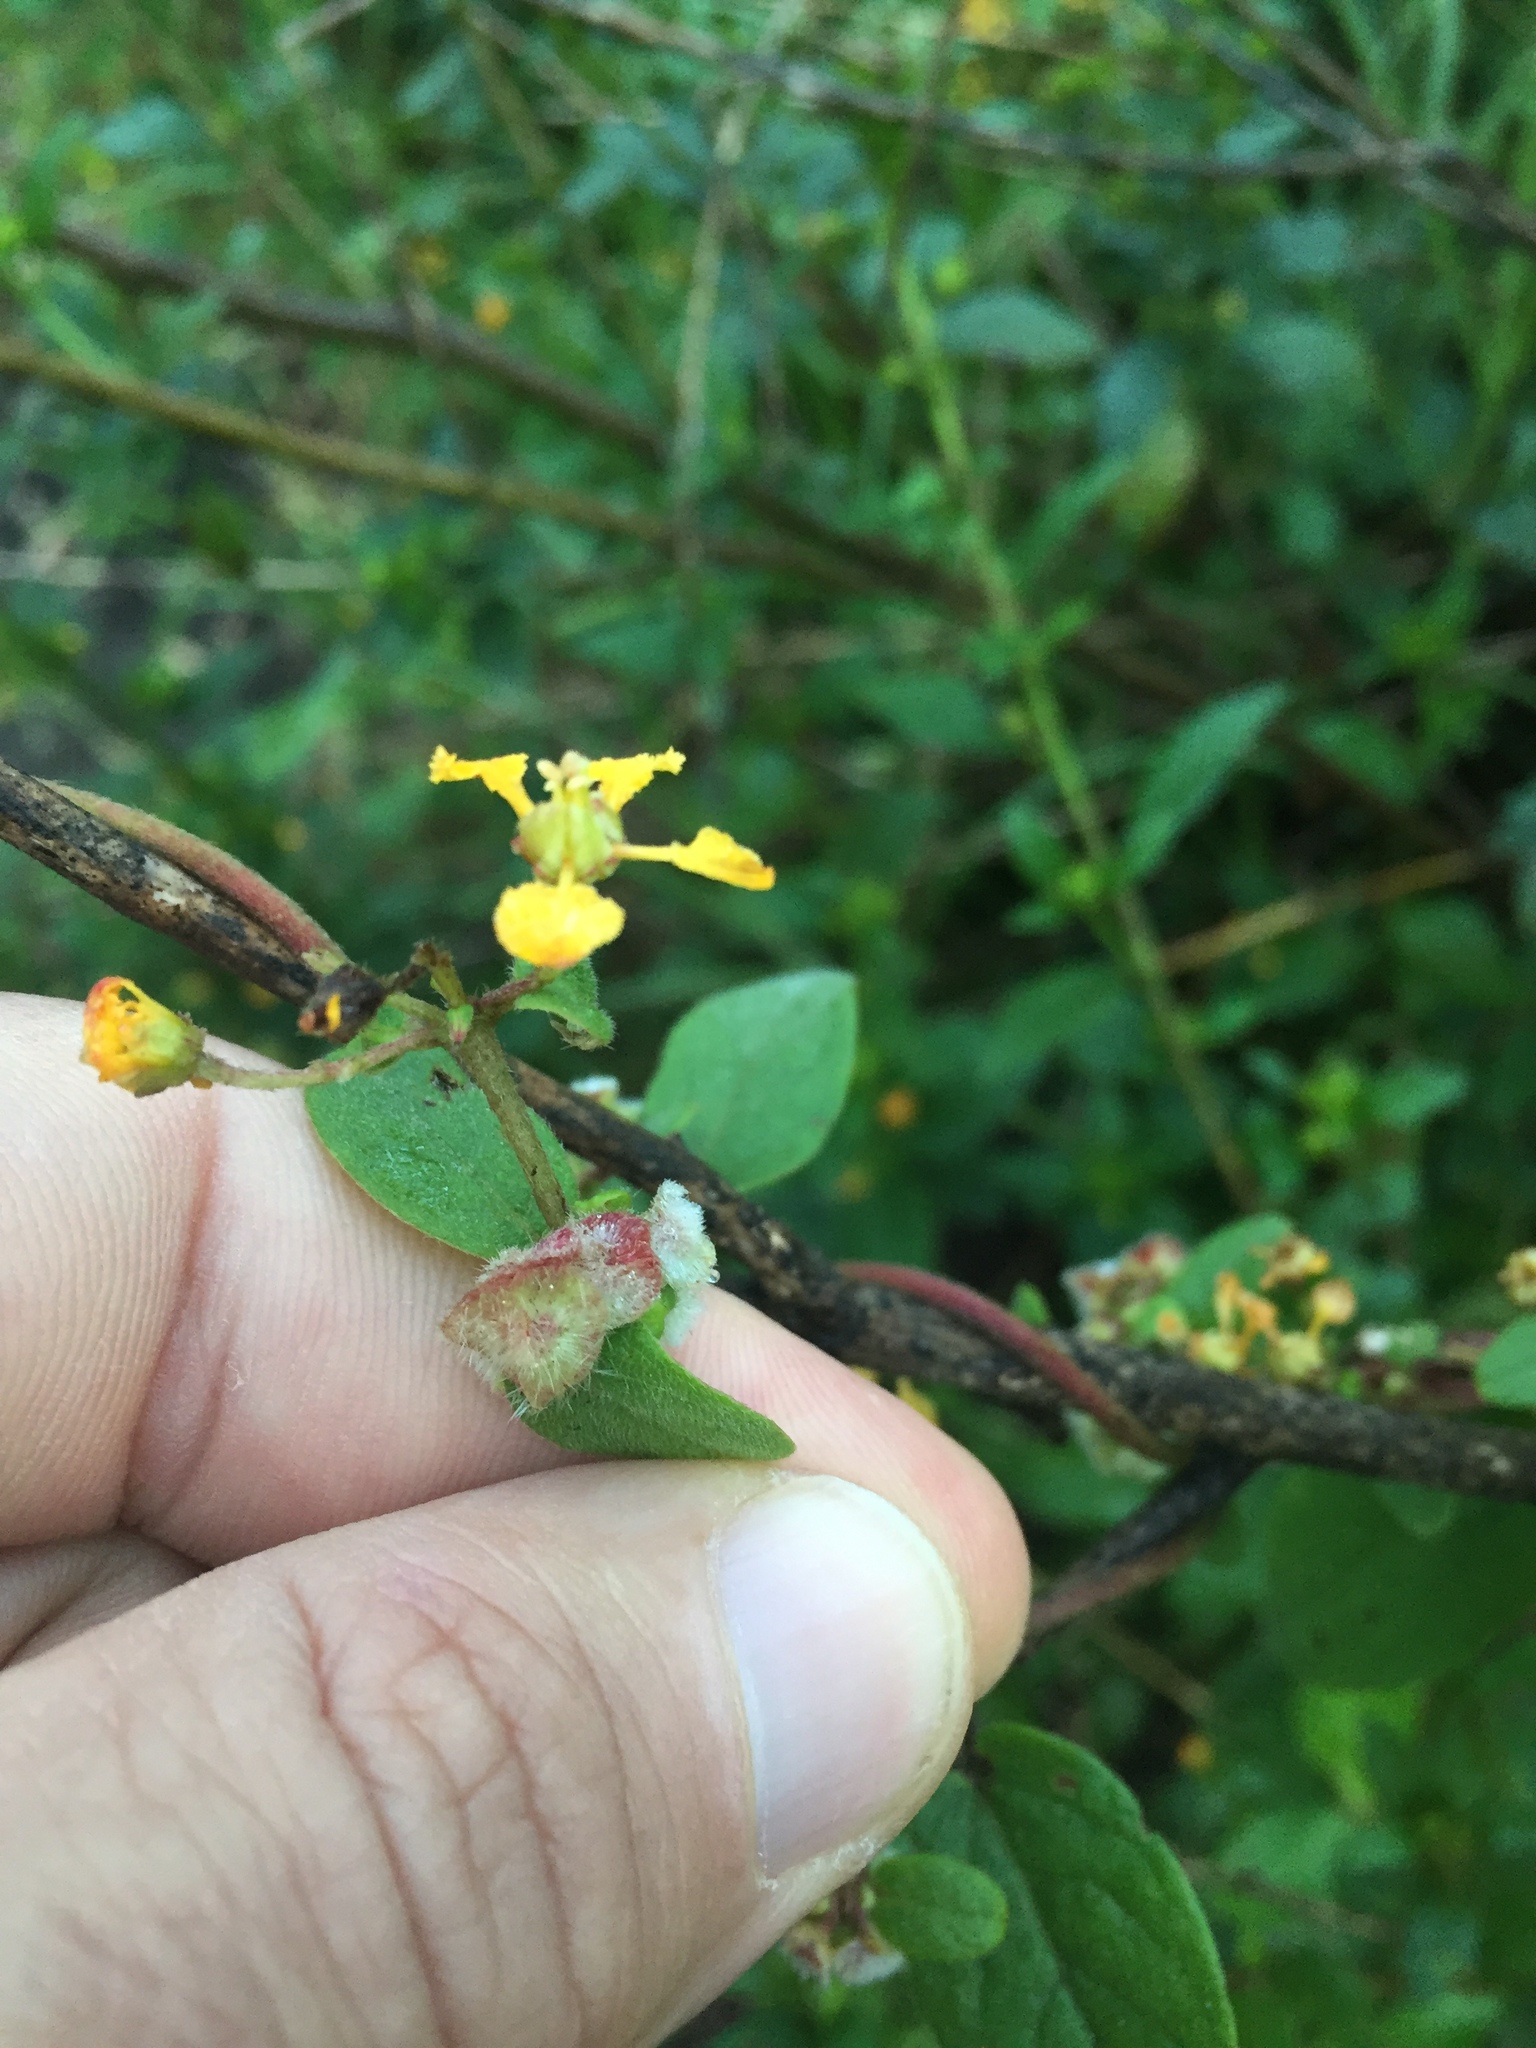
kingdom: Plantae
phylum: Tracheophyta
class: Magnoliopsida
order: Malpighiales
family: Malpighiaceae
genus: Gaudichaudia
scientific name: Gaudichaudia cynanchoides
